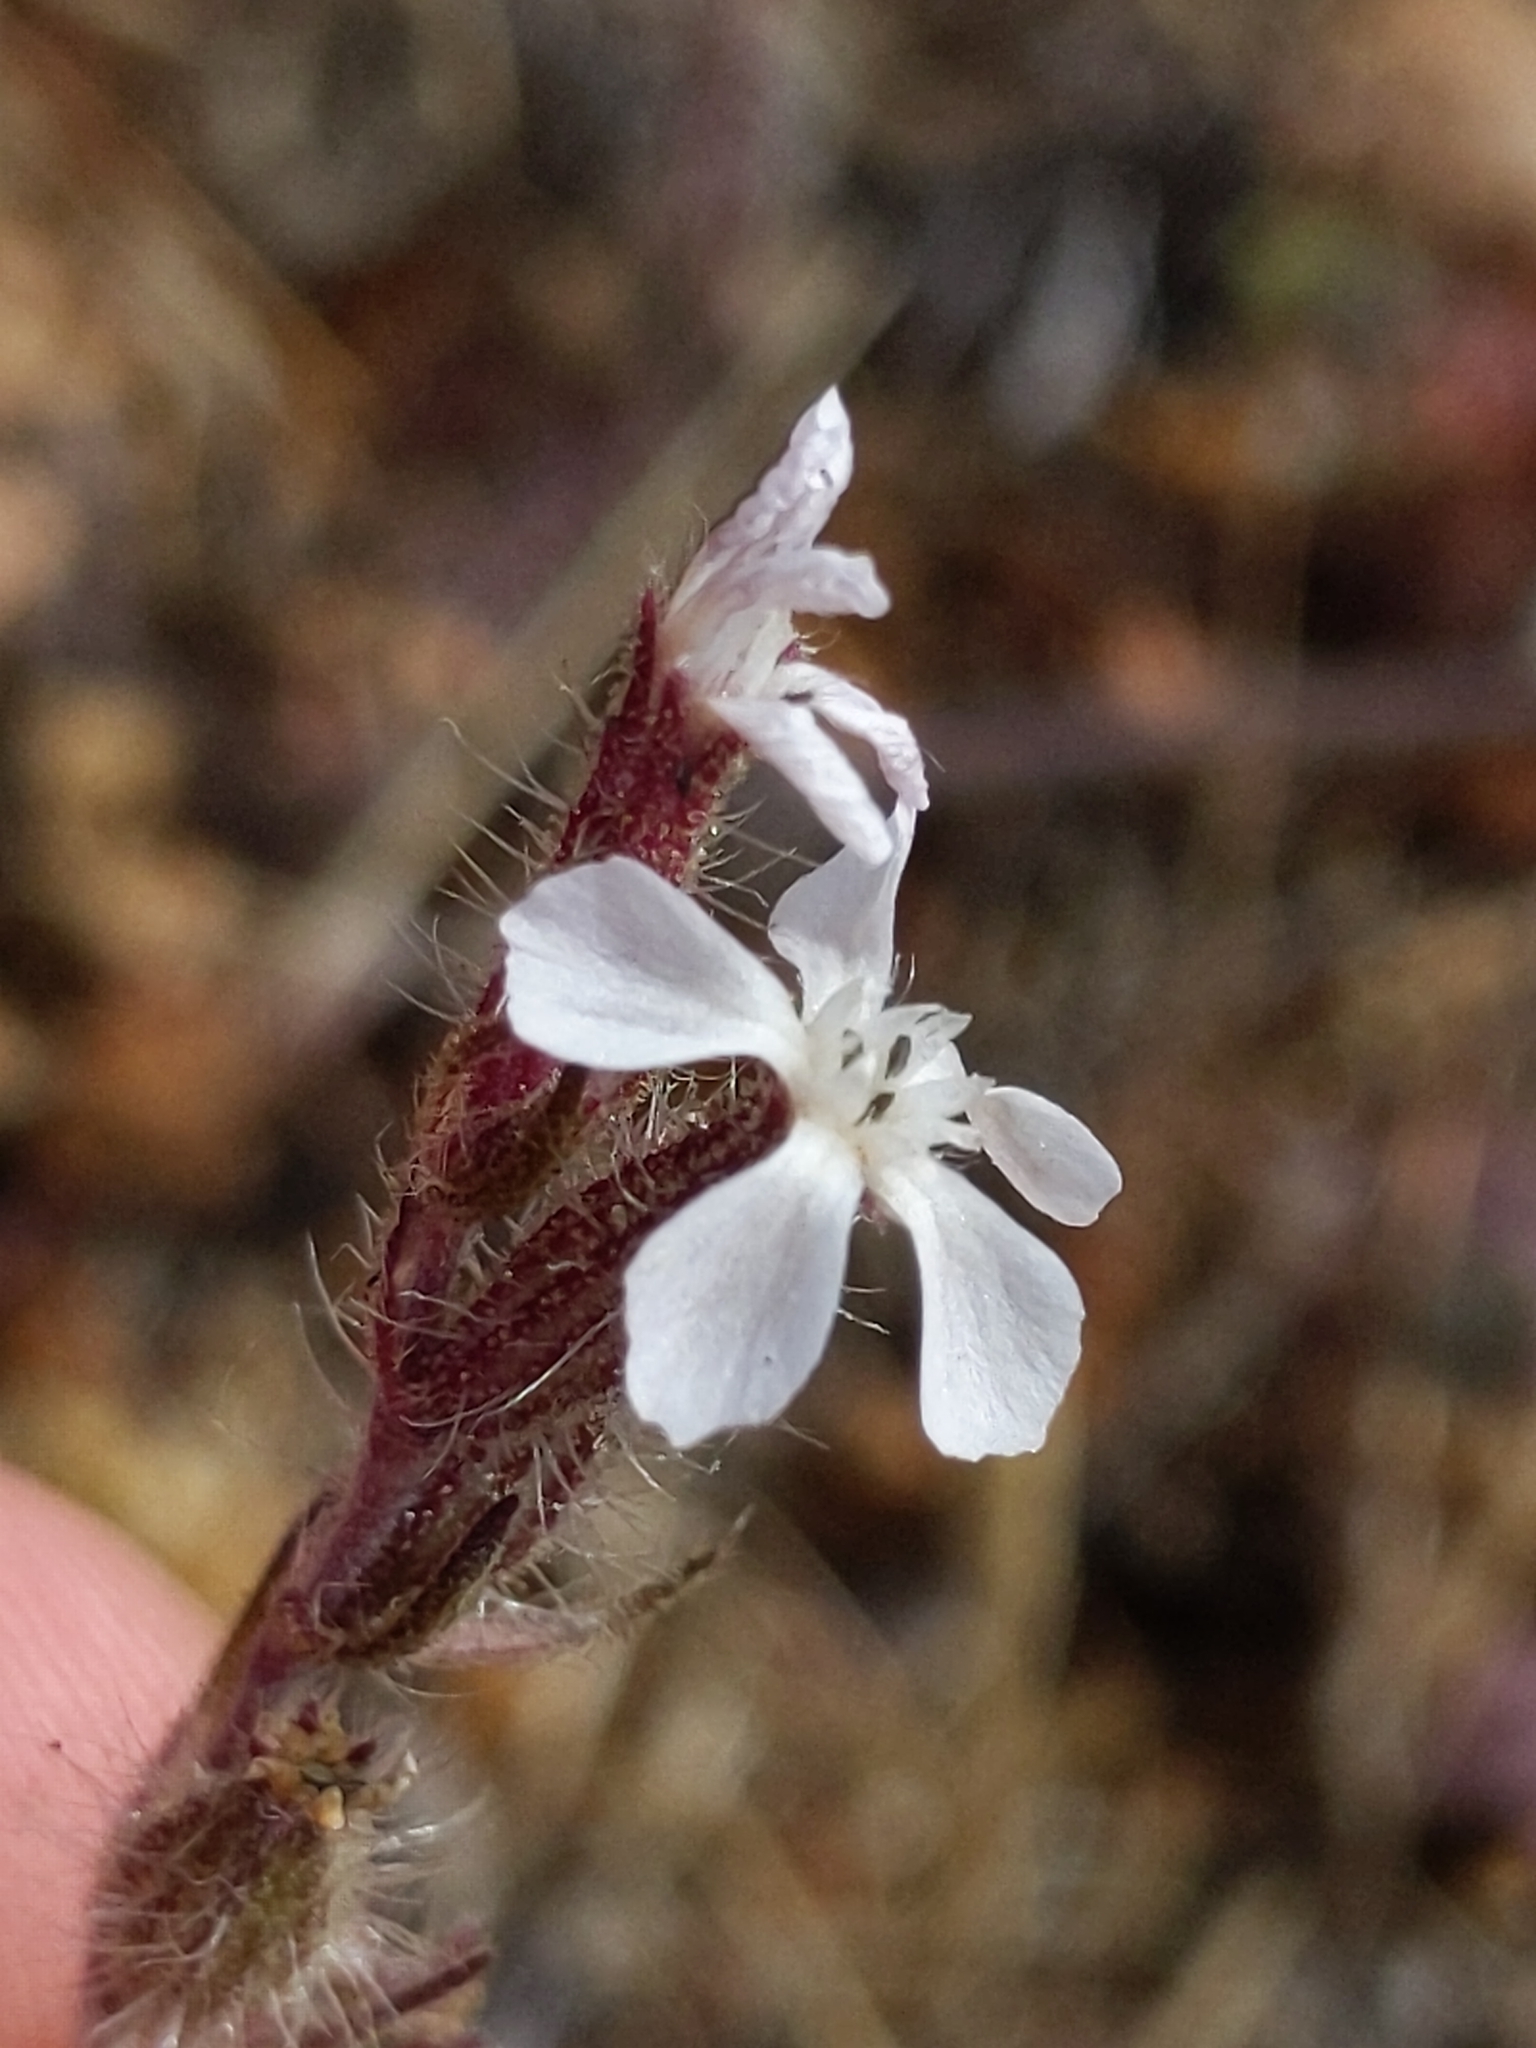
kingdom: Plantae
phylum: Tracheophyta
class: Magnoliopsida
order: Caryophyllales
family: Caryophyllaceae
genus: Silene
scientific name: Silene gallica
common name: Small-flowered catchfly
